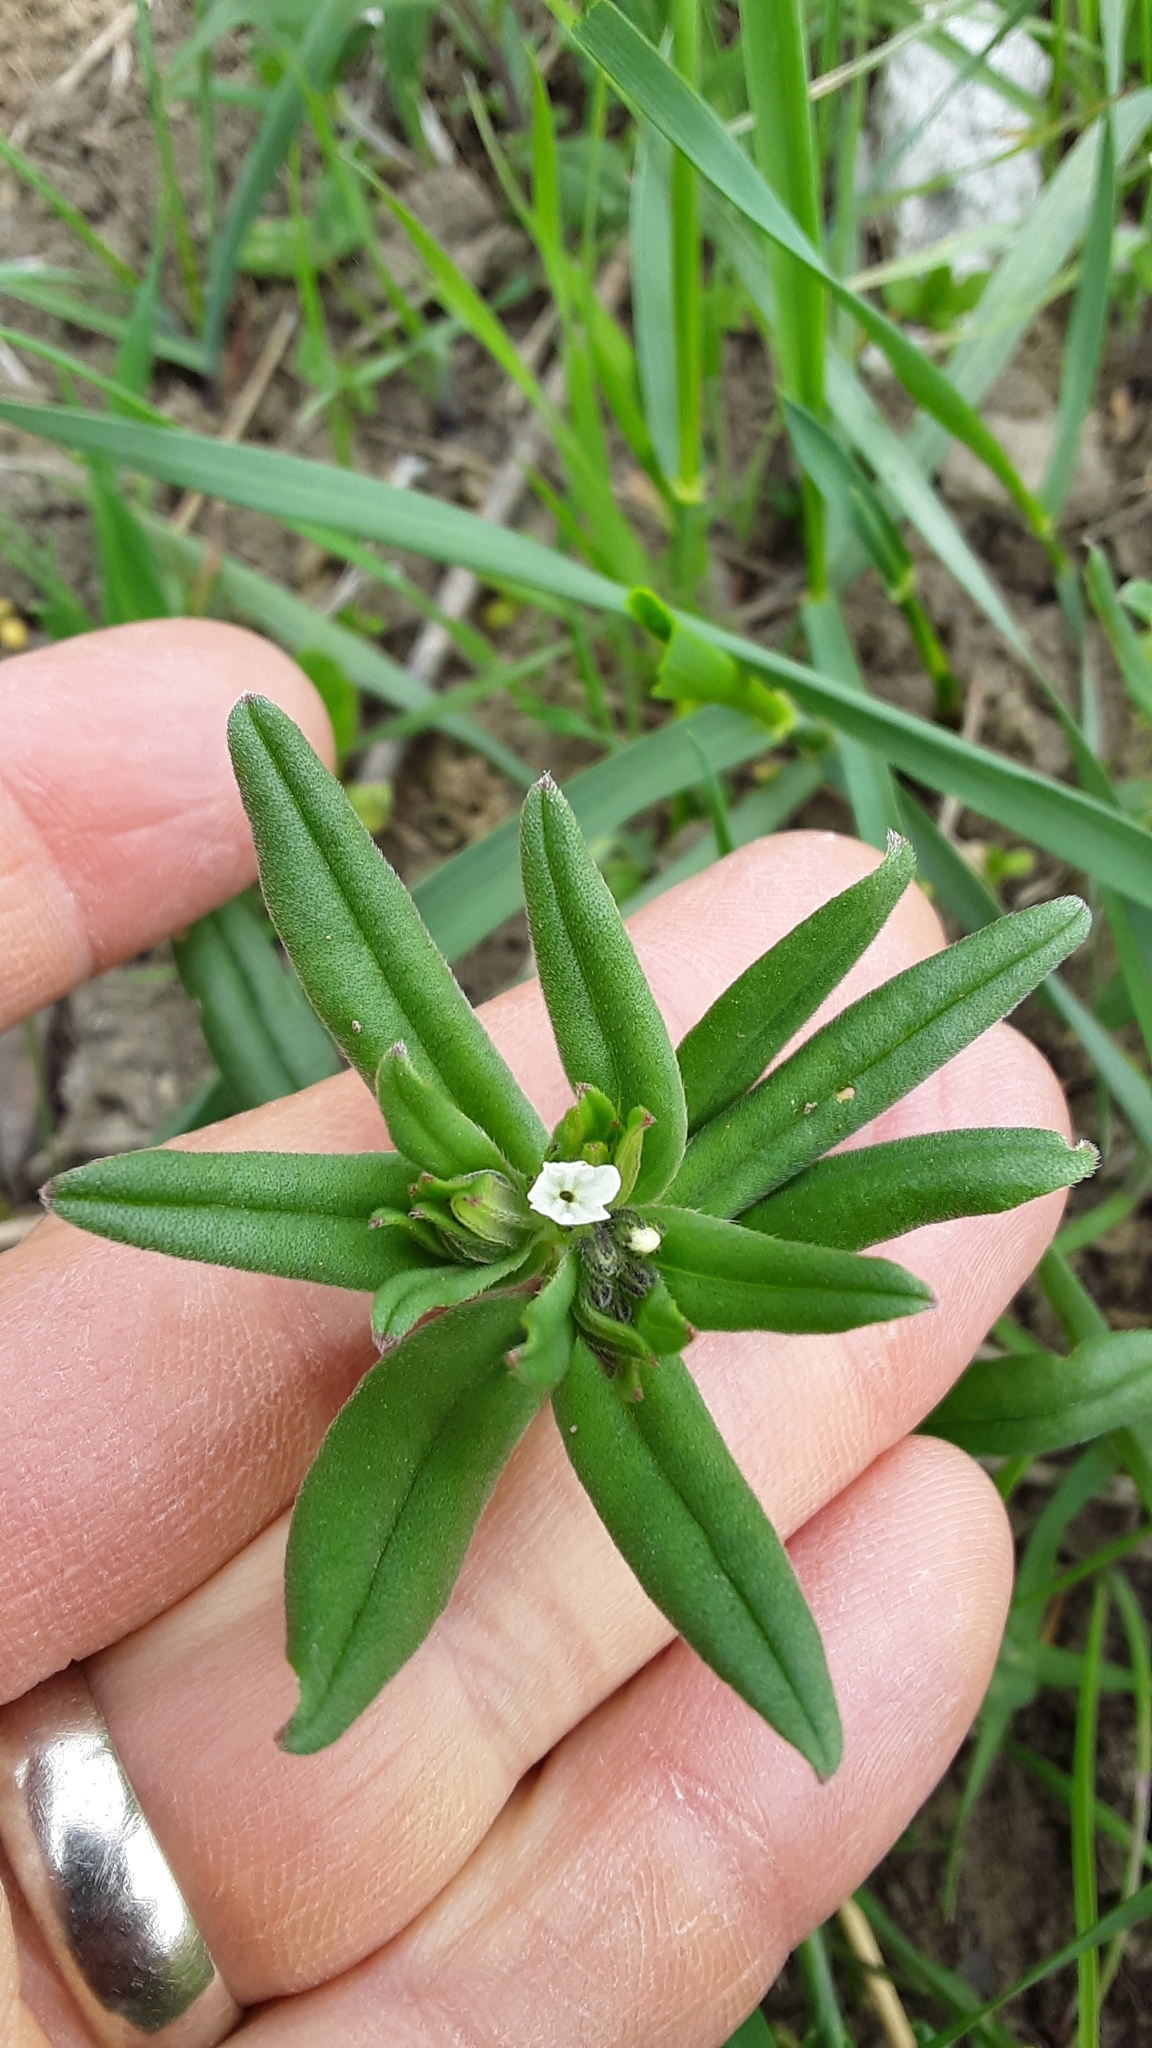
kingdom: Plantae
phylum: Tracheophyta
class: Magnoliopsida
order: Boraginales
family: Boraginaceae
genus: Buglossoides
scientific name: Buglossoides arvensis
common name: Corn gromwell
